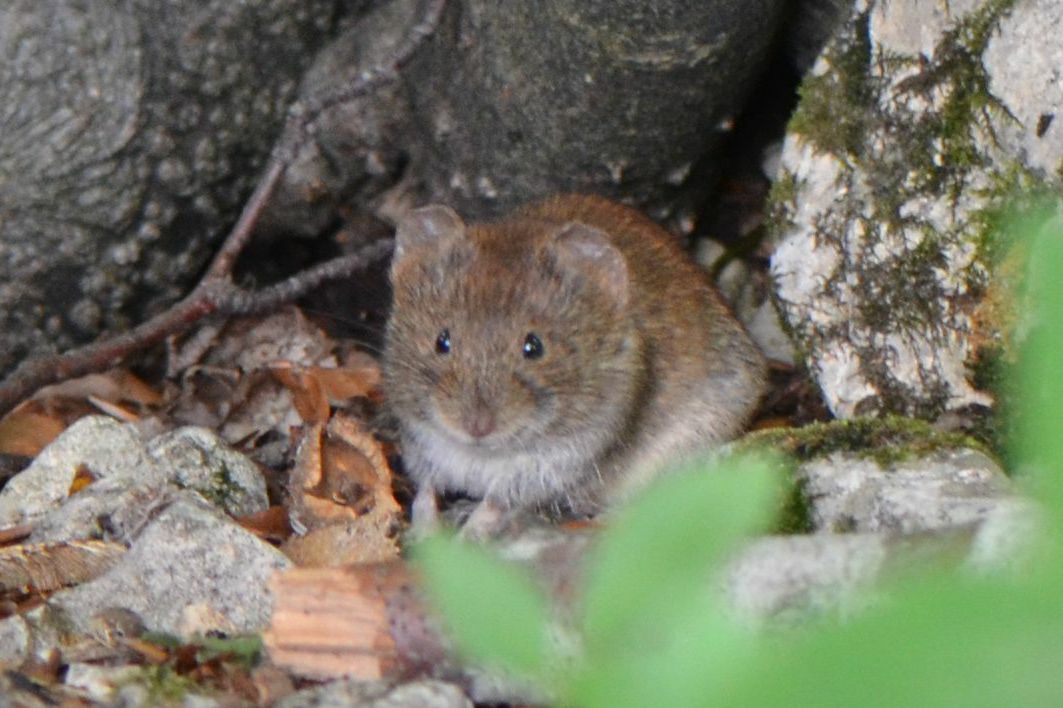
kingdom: Animalia
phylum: Chordata
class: Mammalia
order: Rodentia
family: Cricetidae
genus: Myodes
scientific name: Myodes glareolus
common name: Bank vole
